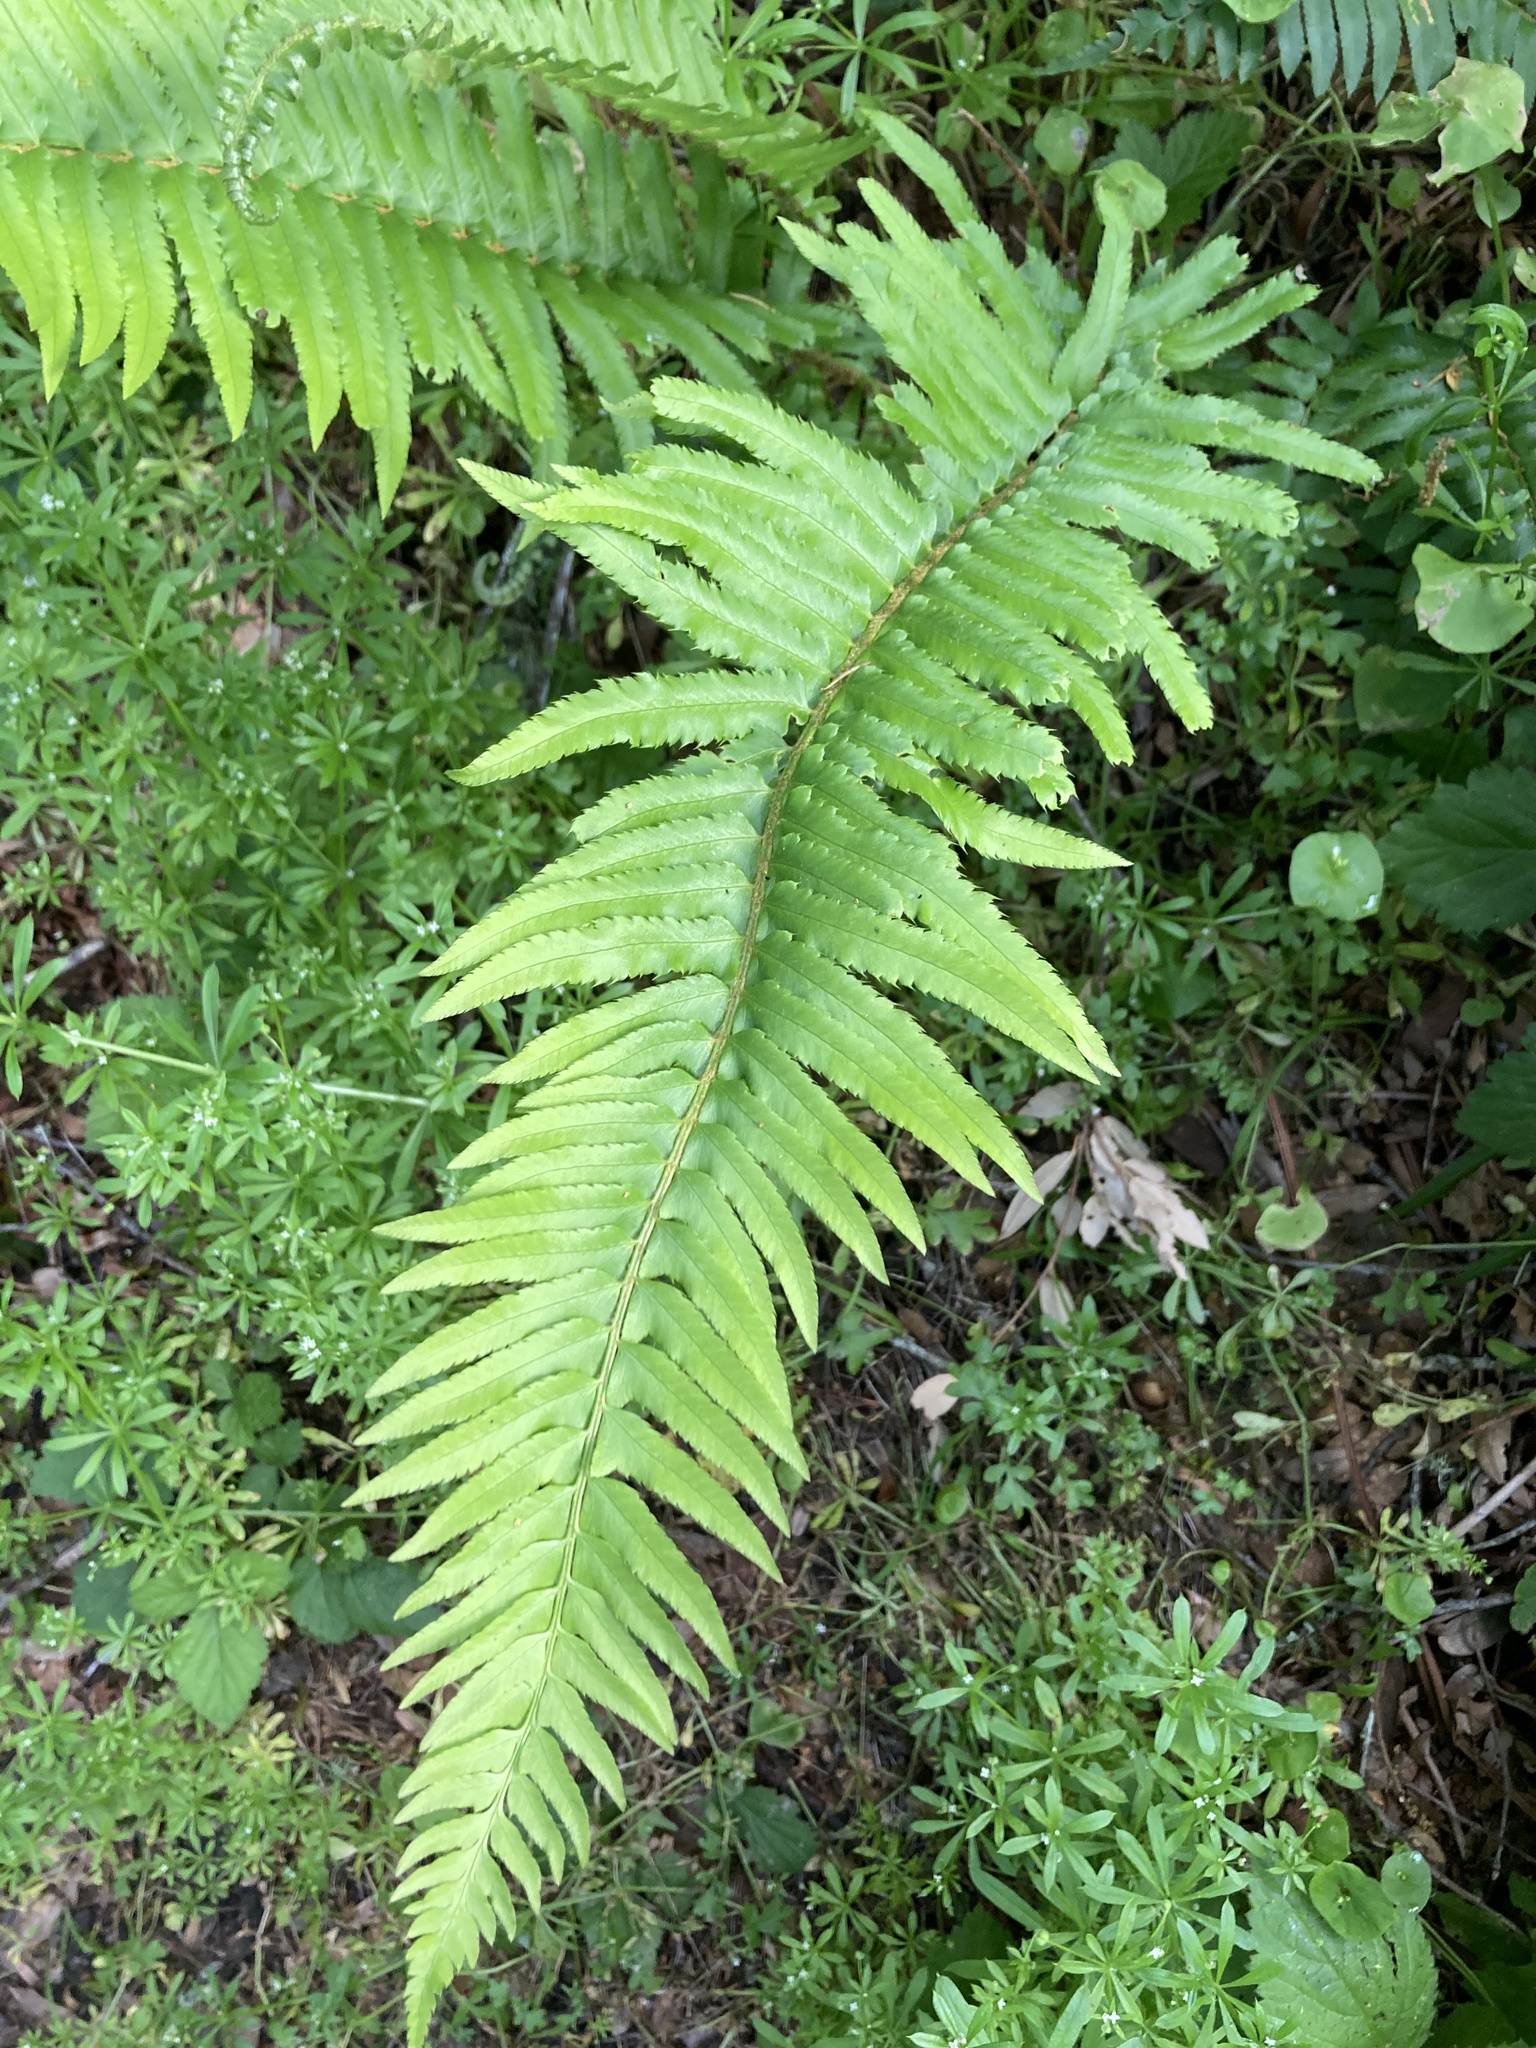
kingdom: Plantae
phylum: Tracheophyta
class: Polypodiopsida
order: Polypodiales
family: Dryopteridaceae
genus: Polystichum
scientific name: Polystichum munitum
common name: Western sword-fern
